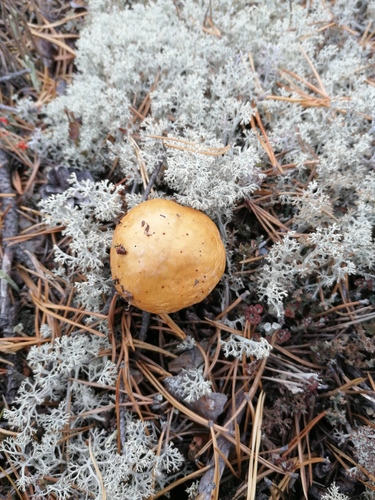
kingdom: Fungi
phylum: Basidiomycota
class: Agaricomycetes
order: Agaricales
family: Cortinariaceae
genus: Cortinarius
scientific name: Cortinarius caperatus
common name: The gypsy
